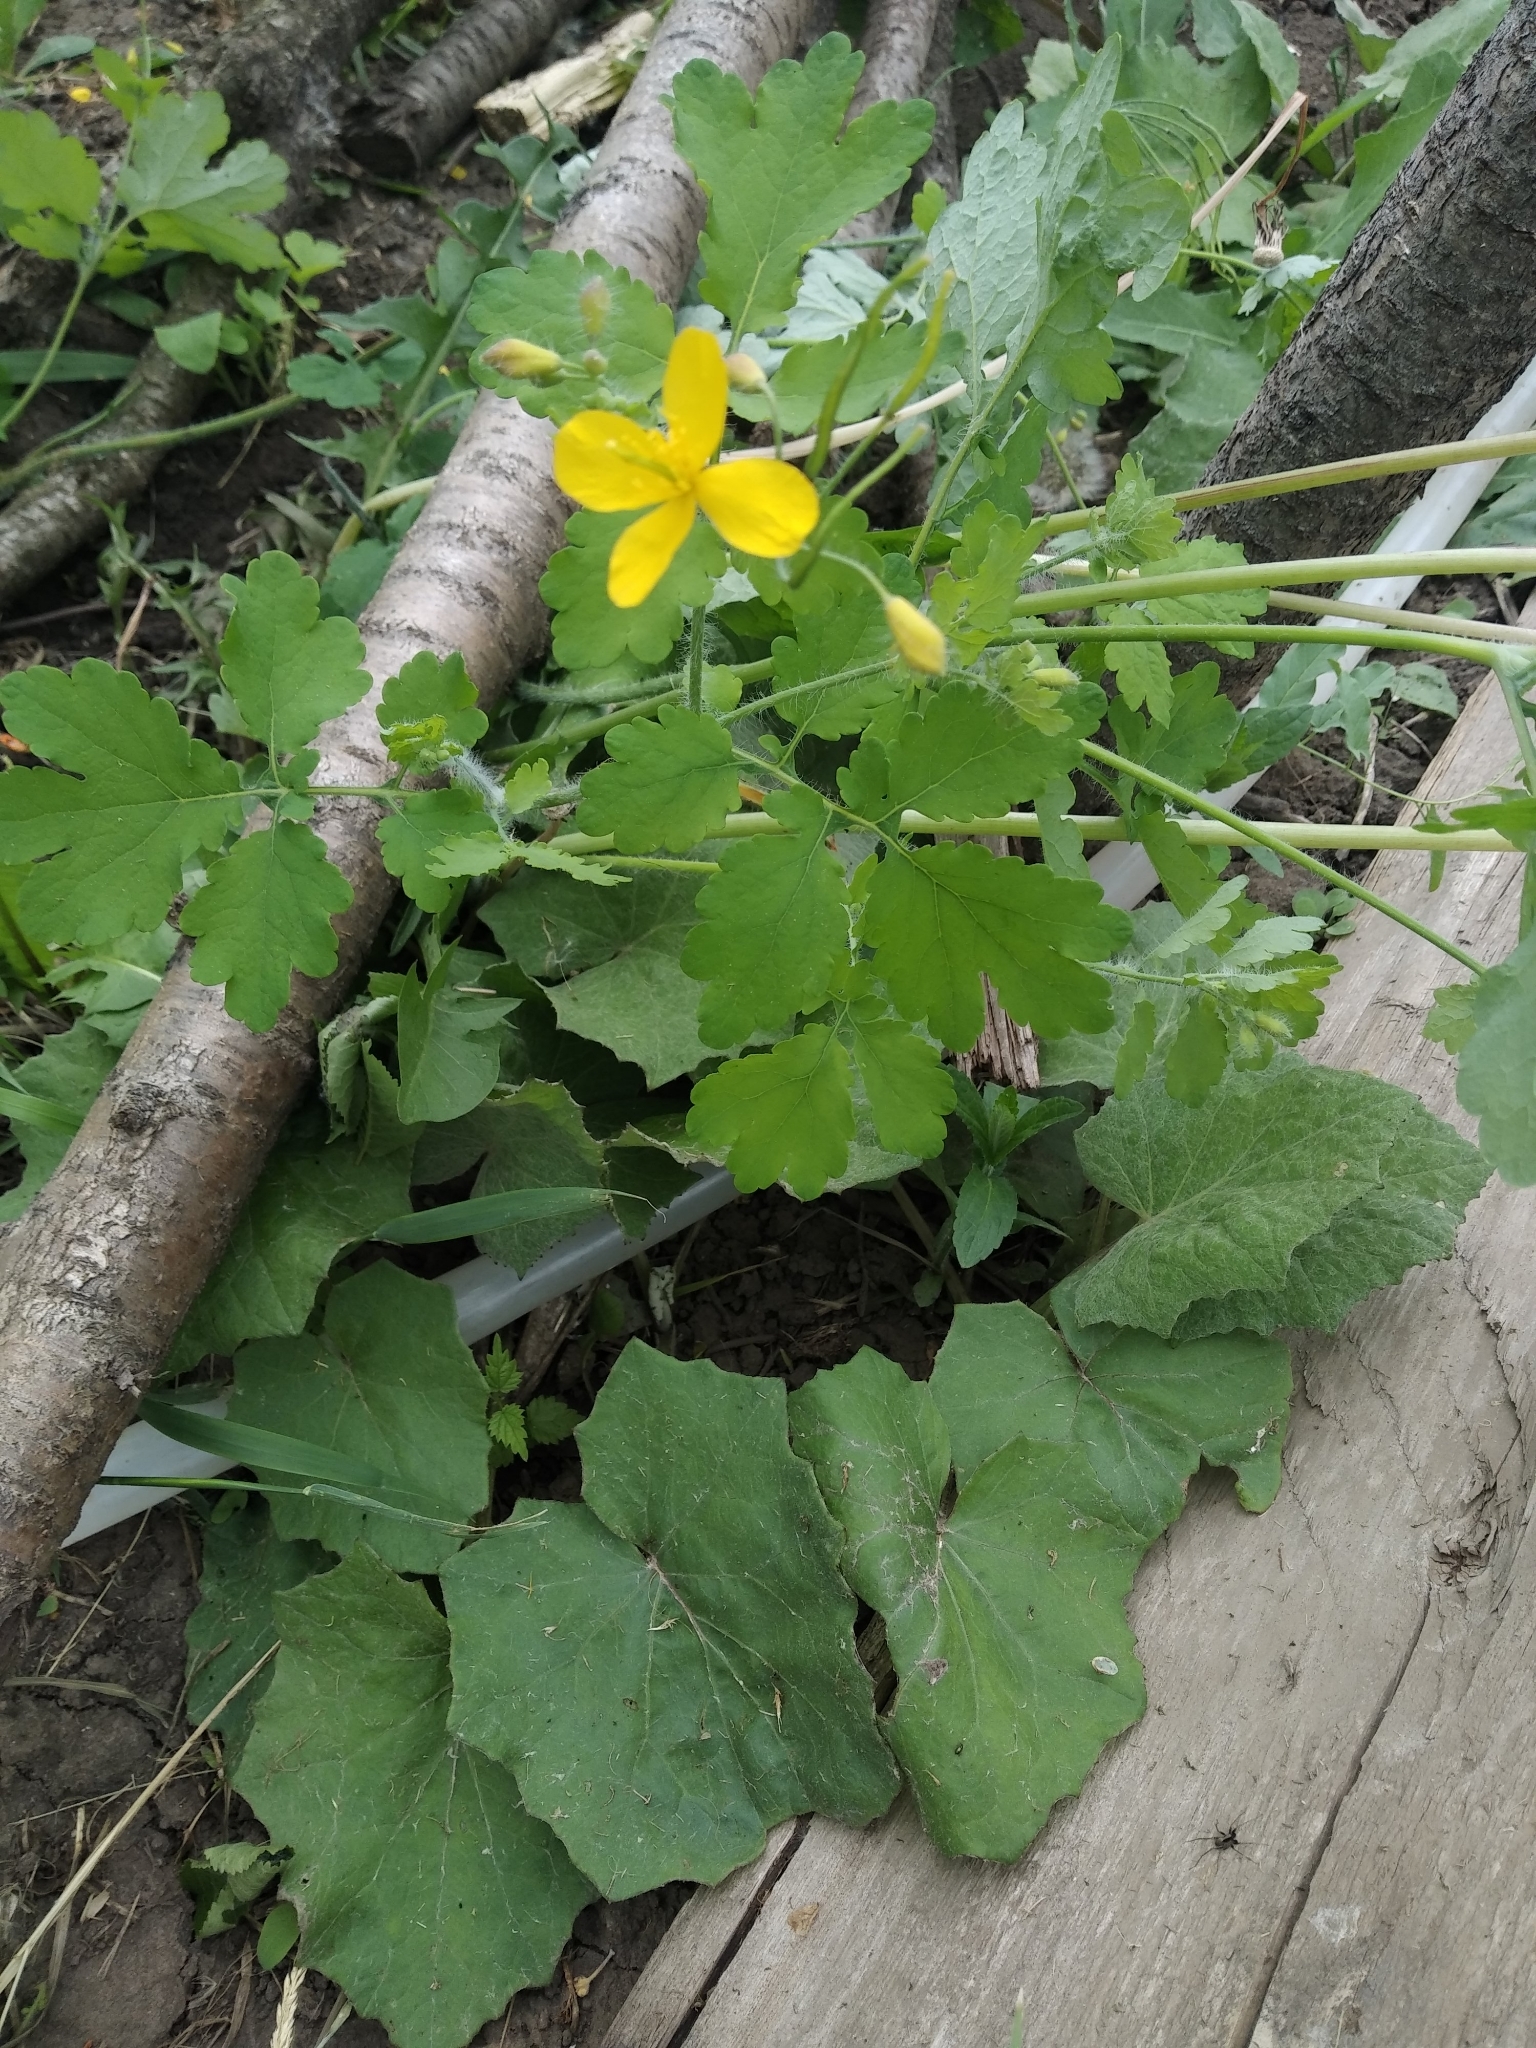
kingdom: Plantae
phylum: Tracheophyta
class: Magnoliopsida
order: Ranunculales
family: Papaveraceae
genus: Chelidonium
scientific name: Chelidonium majus
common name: Greater celandine
